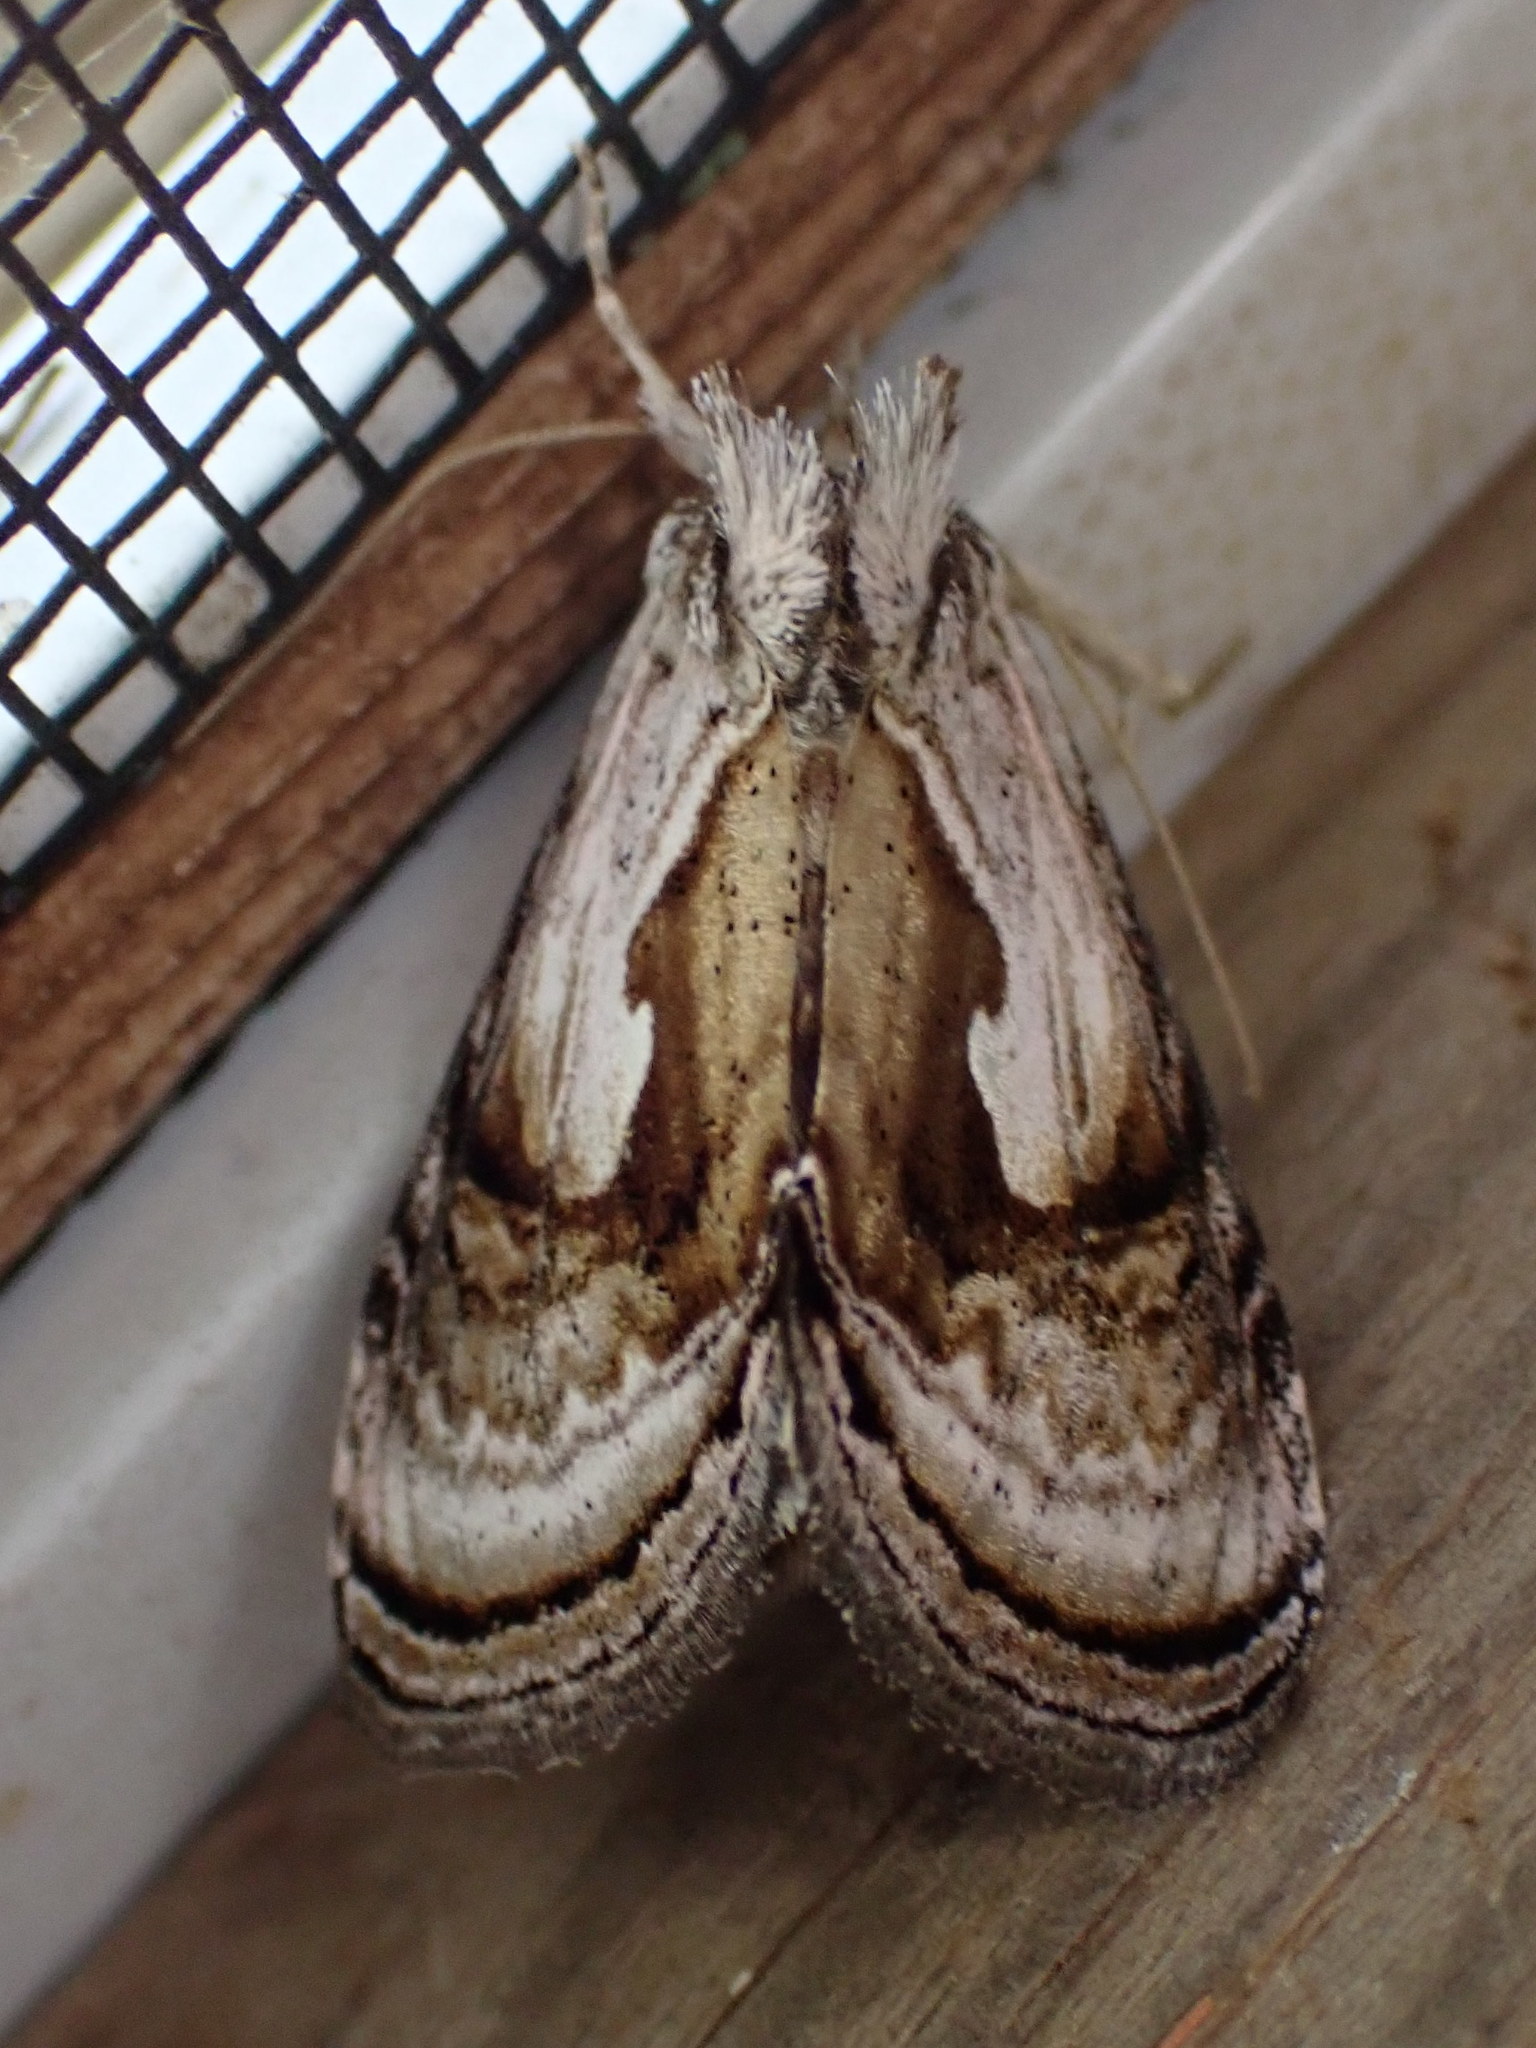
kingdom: Animalia
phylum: Arthropoda
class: Insecta
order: Lepidoptera
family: Noctuidae
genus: Chrysanympha
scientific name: Chrysanympha formosa
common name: Formosa looper moth
